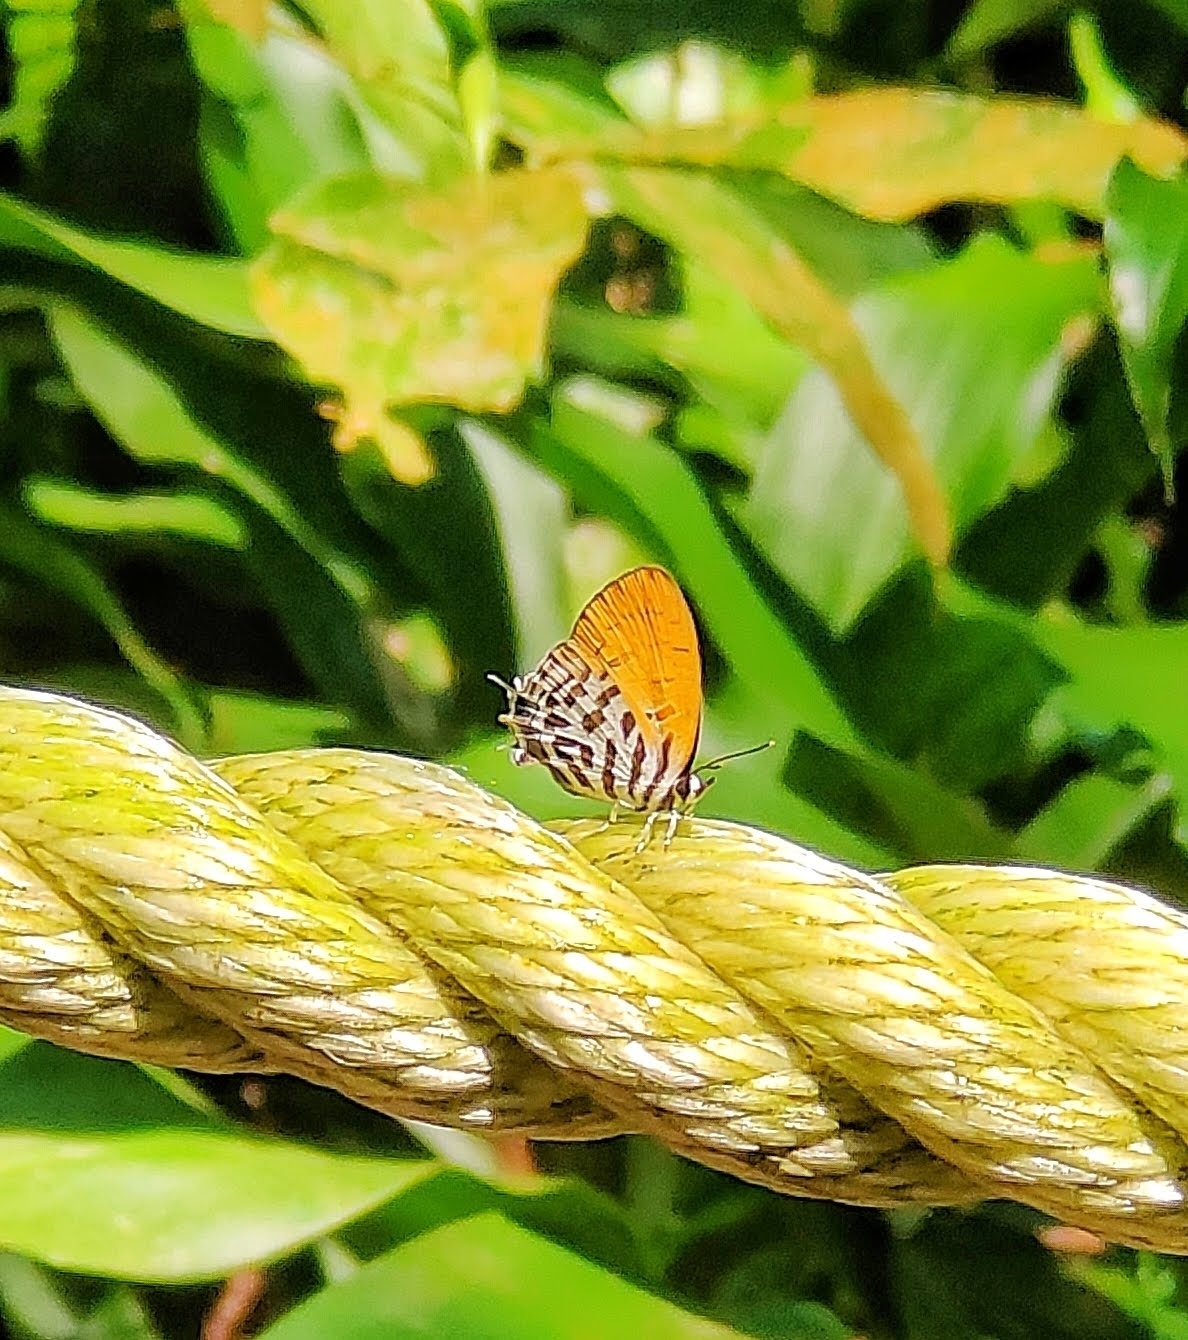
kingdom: Animalia
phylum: Arthropoda
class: Insecta
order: Lepidoptera
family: Lycaenidae
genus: Drupadia
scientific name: Drupadia ravindra
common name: Common posy
